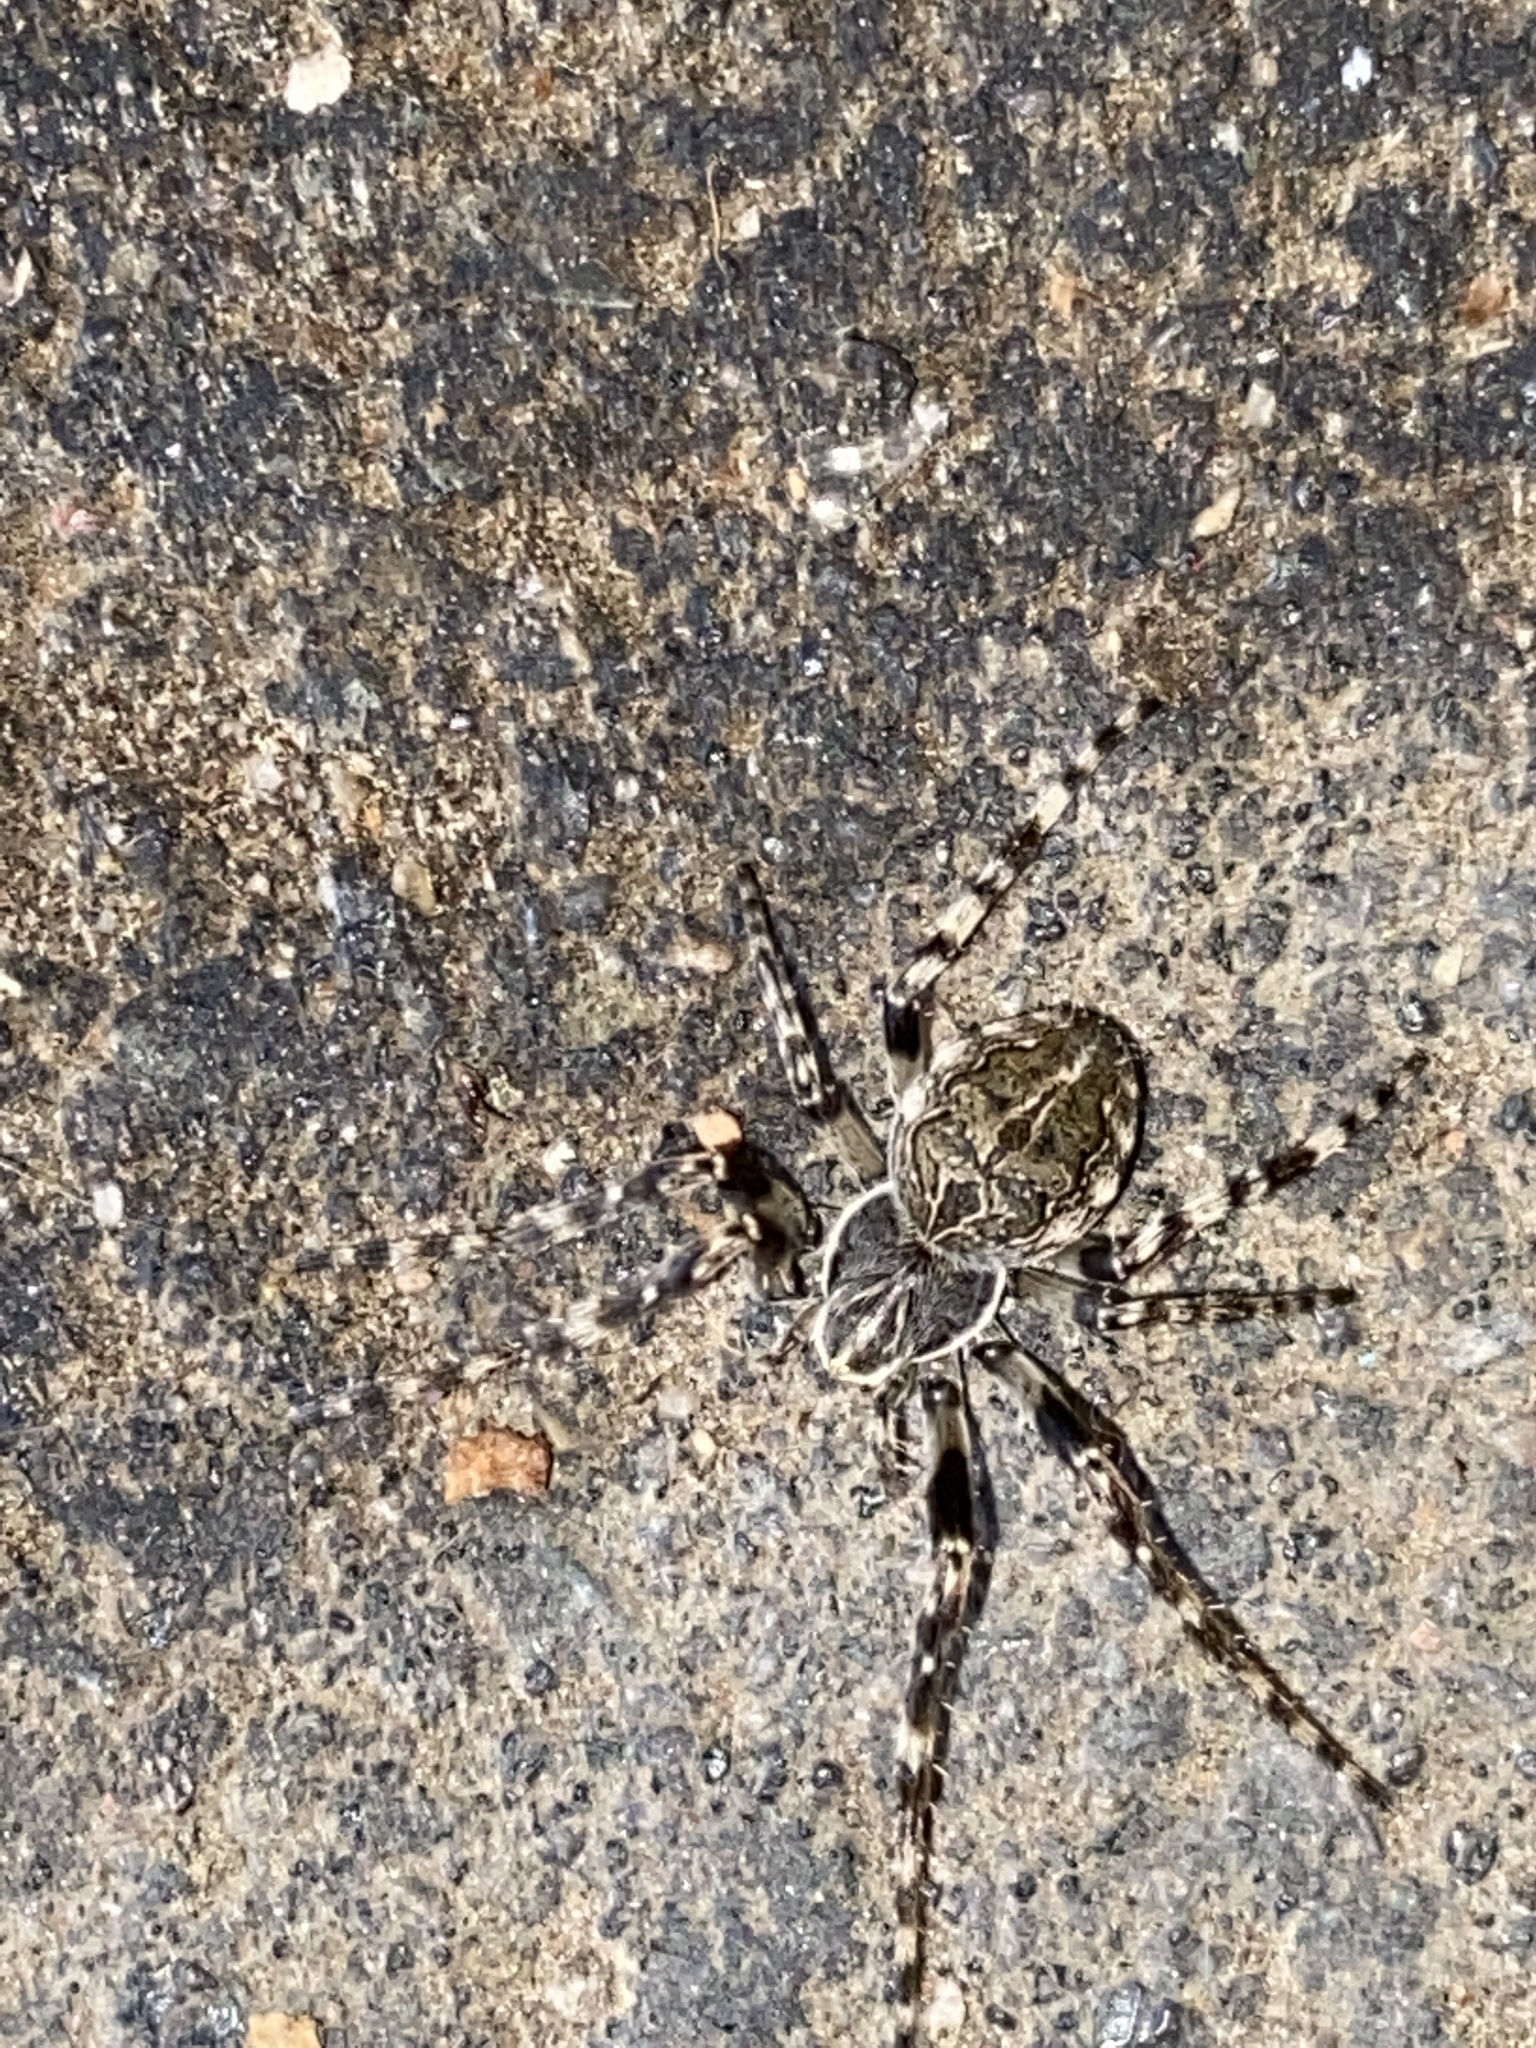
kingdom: Animalia
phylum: Arthropoda
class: Arachnida
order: Araneae
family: Araneidae
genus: Larinioides
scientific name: Larinioides sclopetarius
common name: Bridge orbweaver
